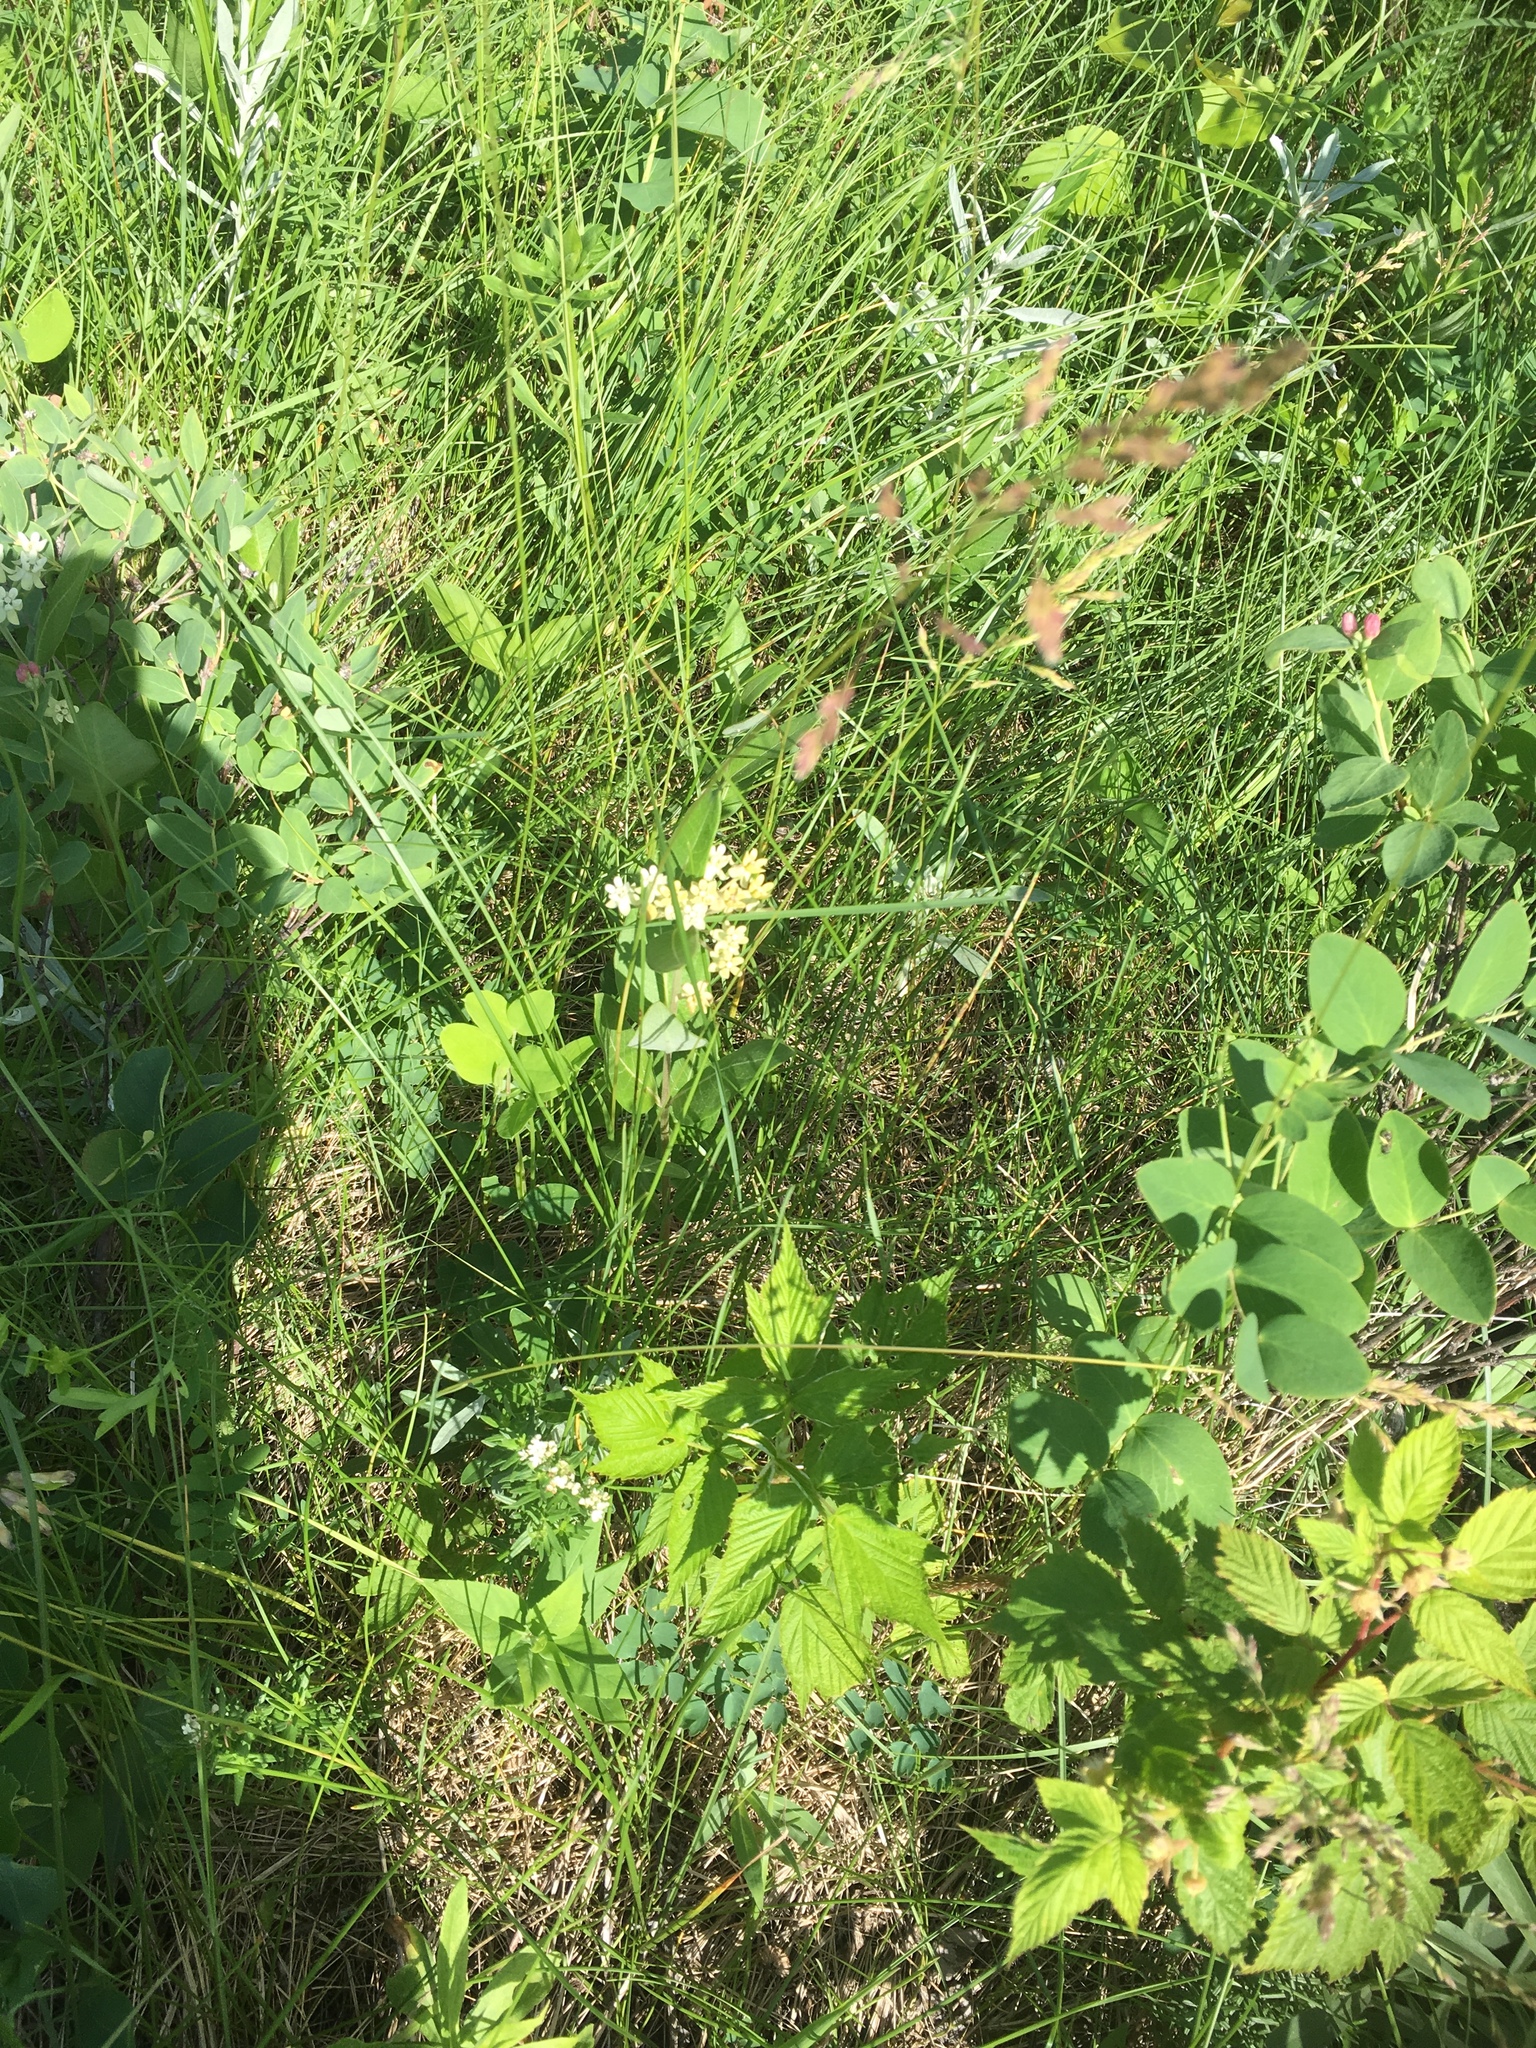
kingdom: Plantae
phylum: Tracheophyta
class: Magnoliopsida
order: Gentianales
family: Apocynaceae
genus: Asclepias
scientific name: Asclepias ovalifolia
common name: Dwarf milkweed
